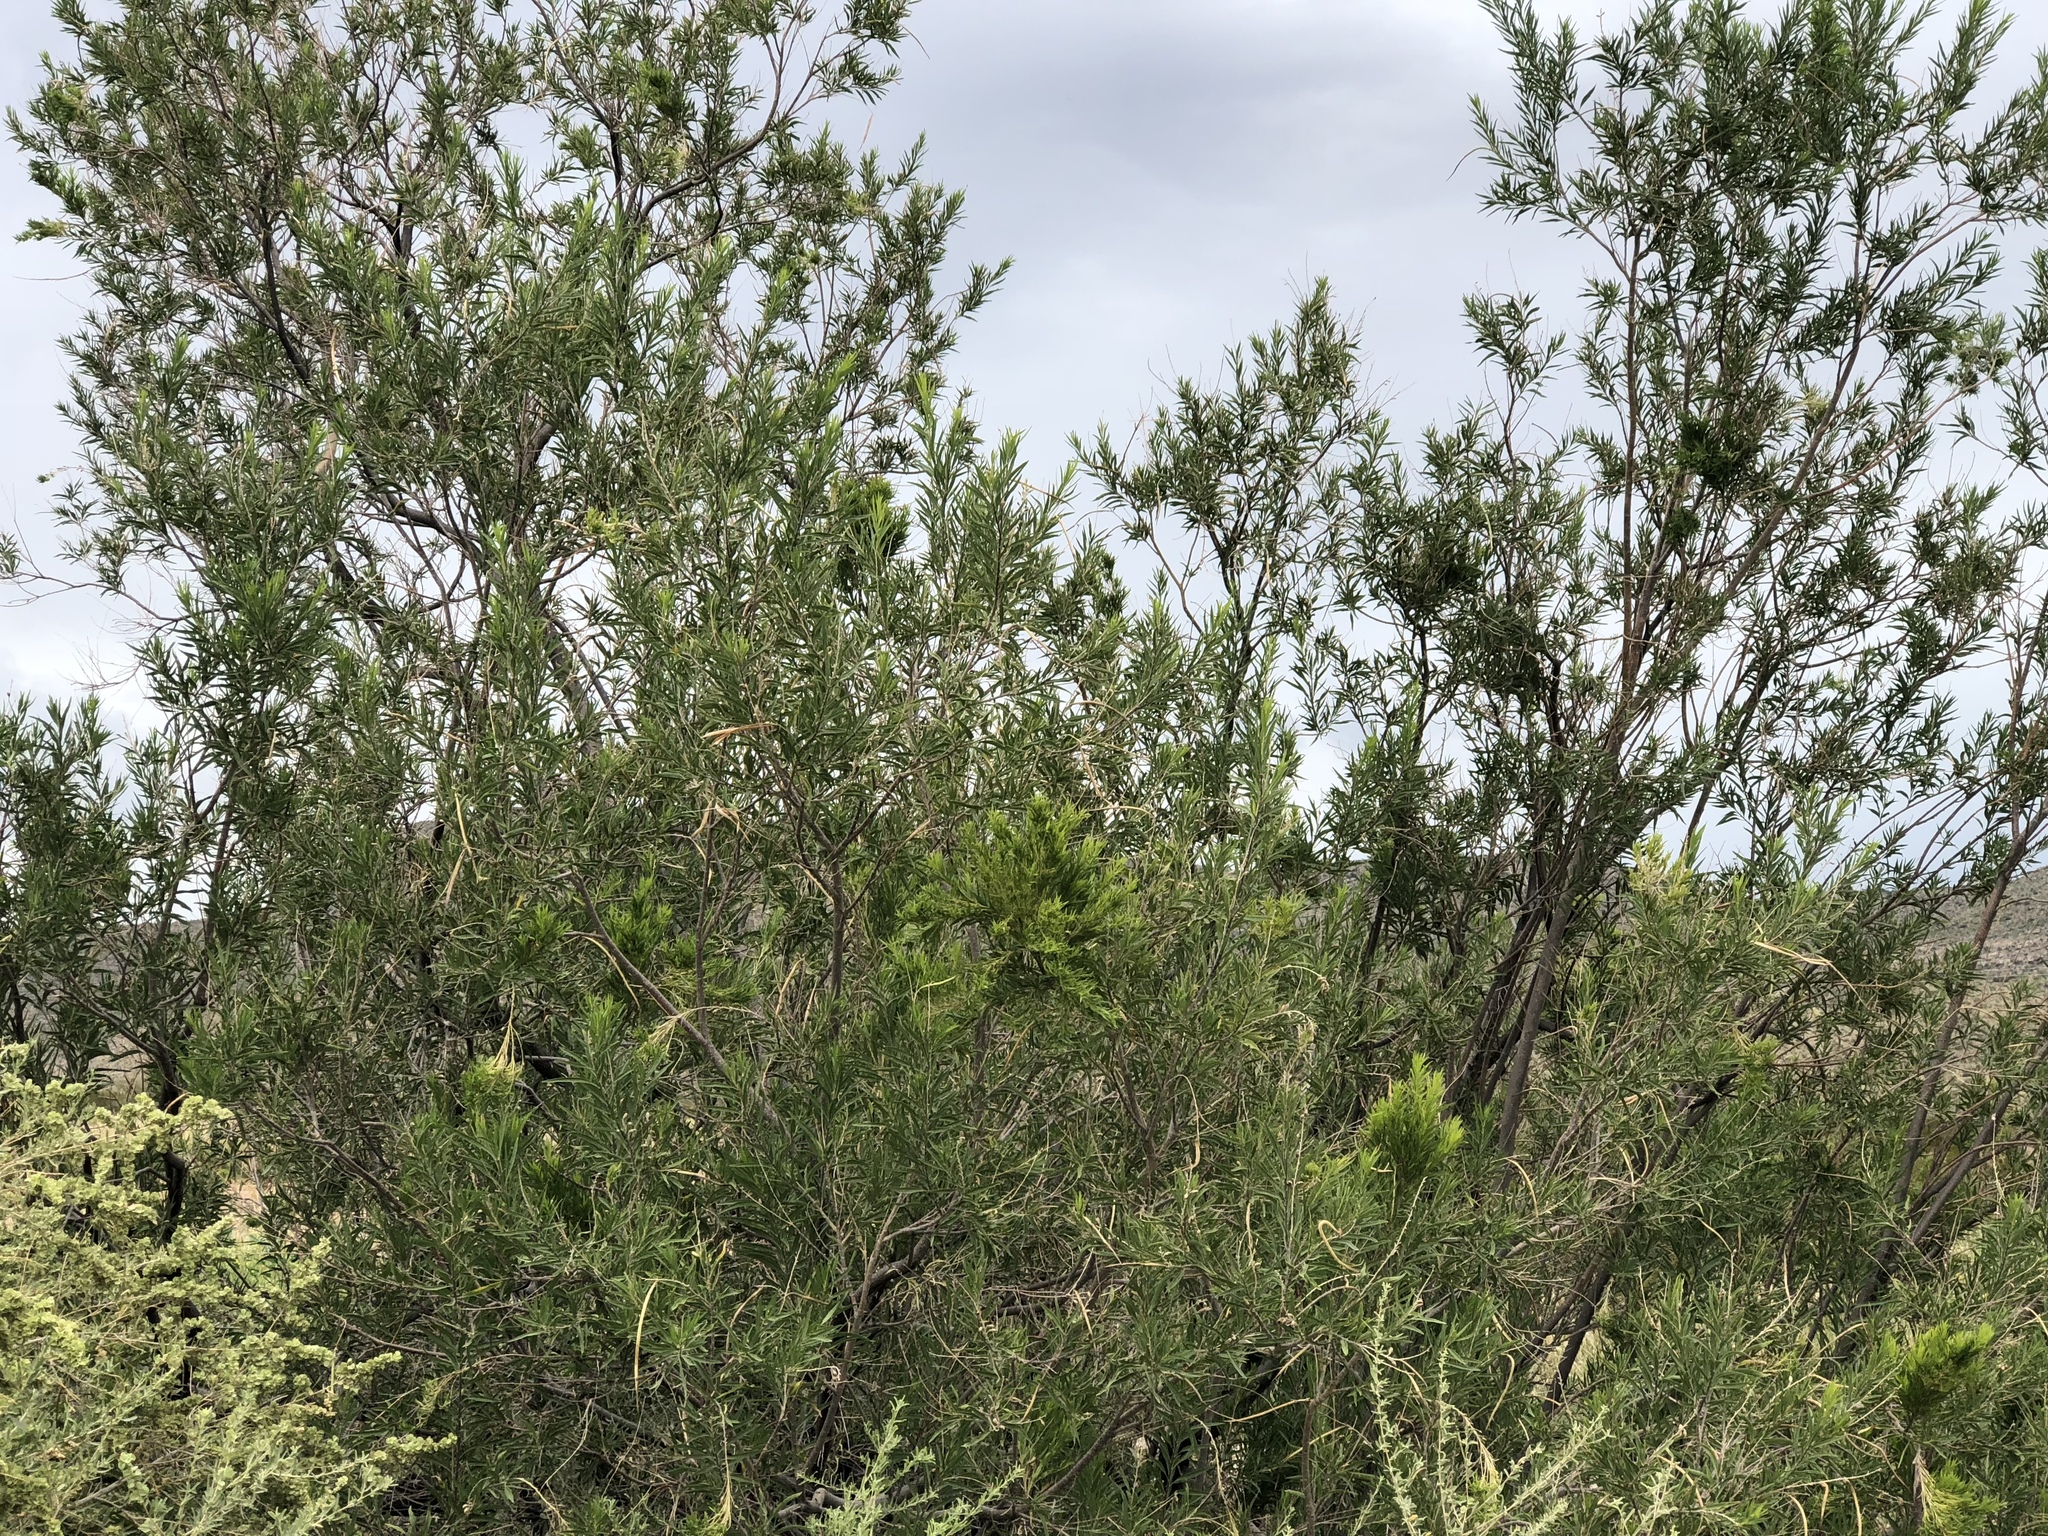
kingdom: Plantae
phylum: Tracheophyta
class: Magnoliopsida
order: Lamiales
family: Bignoniaceae
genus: Chilopsis
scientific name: Chilopsis linearis
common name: Desert-willow
